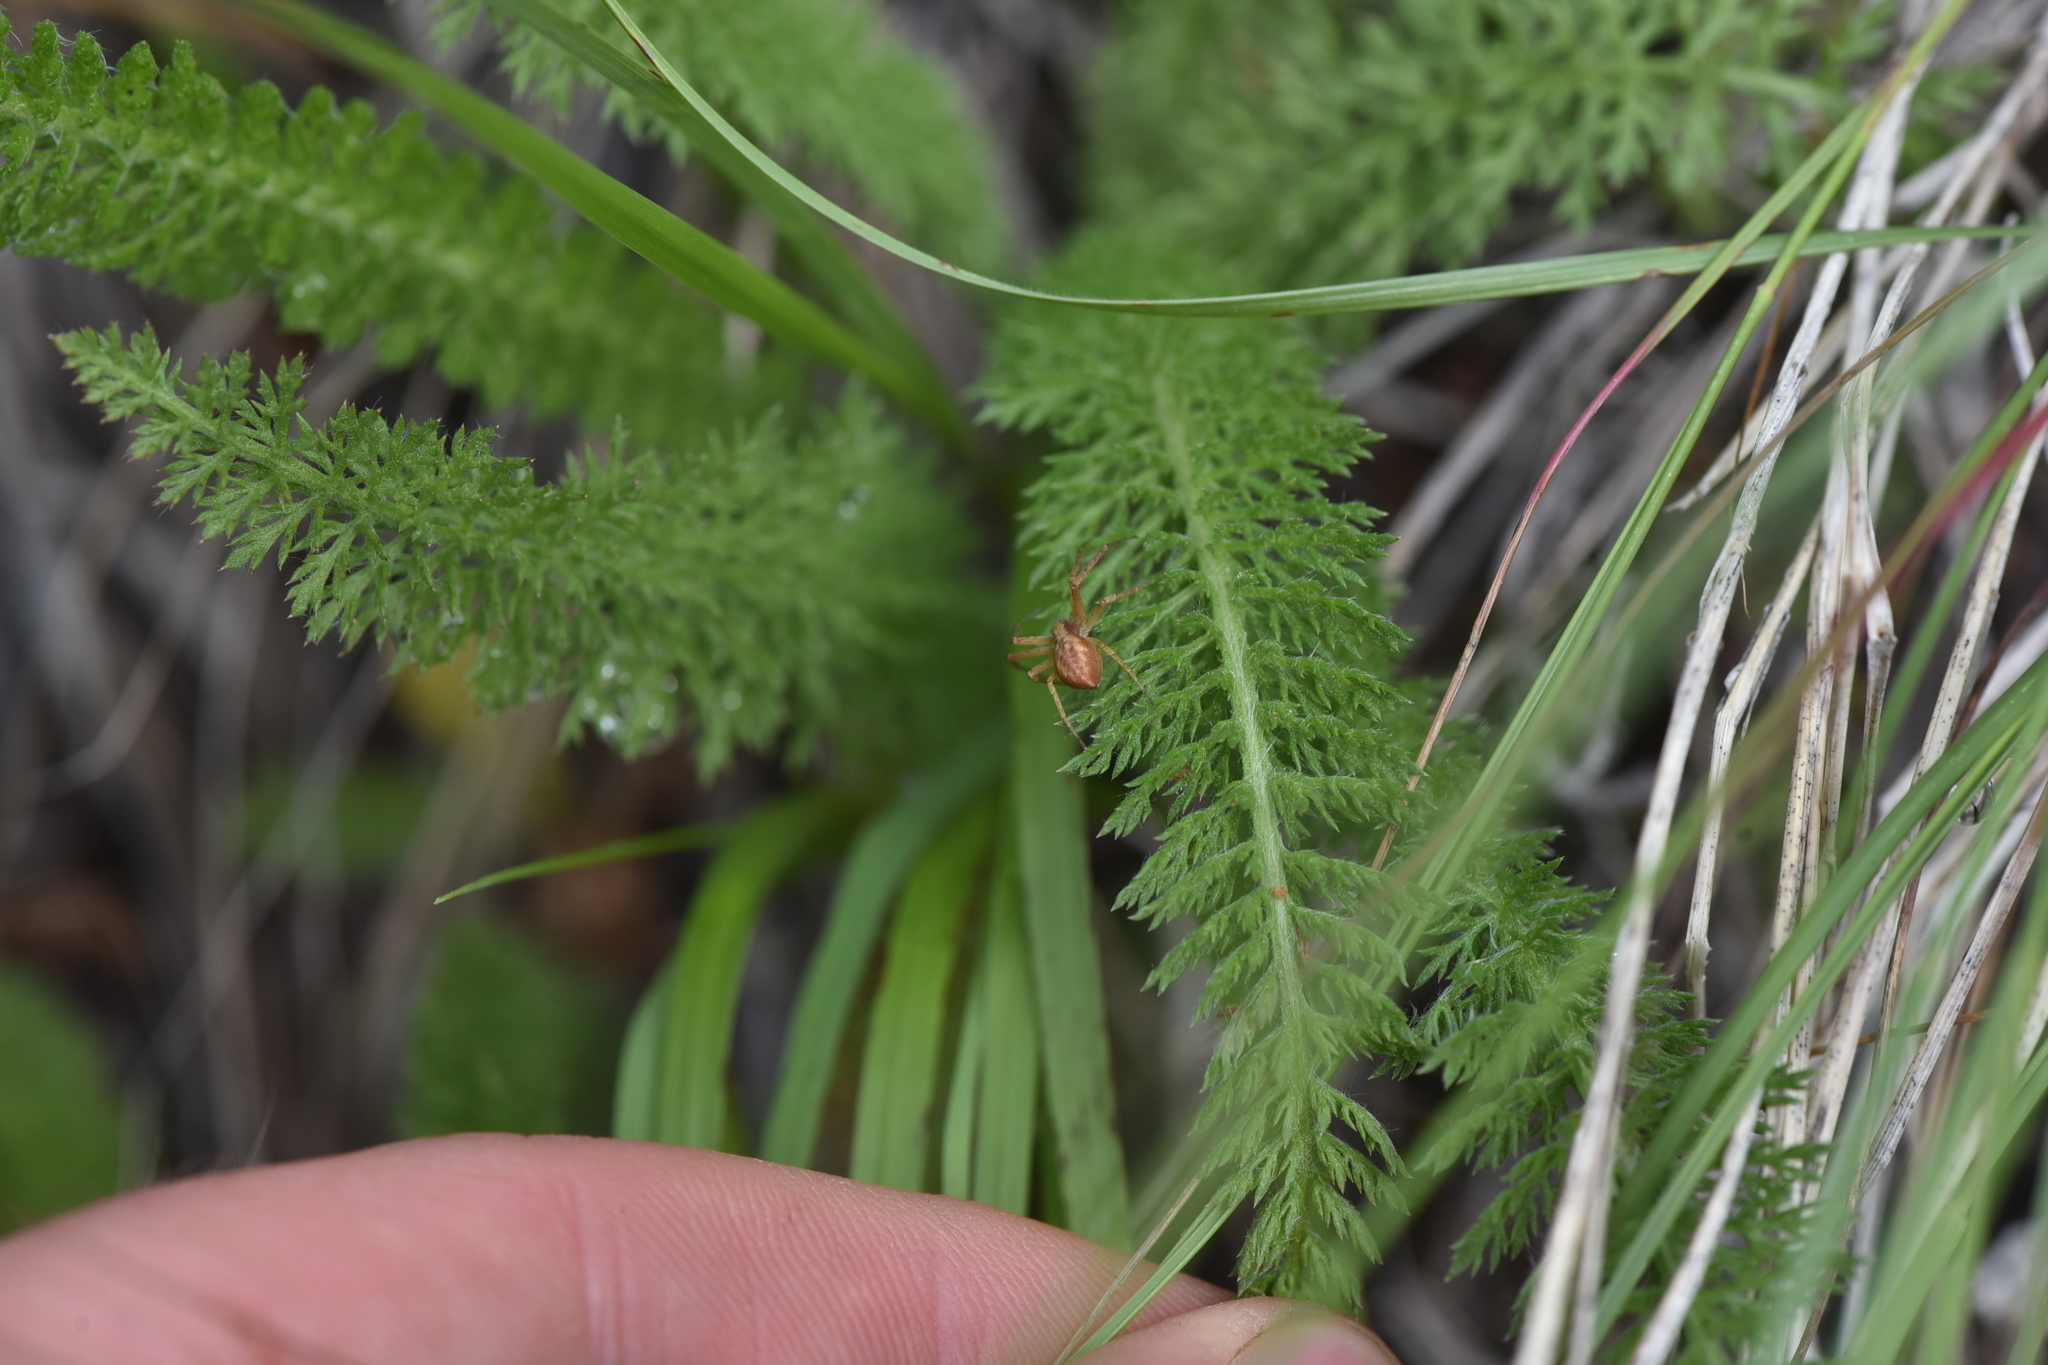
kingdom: Plantae
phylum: Tracheophyta
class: Magnoliopsida
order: Asterales
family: Asteraceae
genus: Achillea
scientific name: Achillea millefolium
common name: Yarrow
